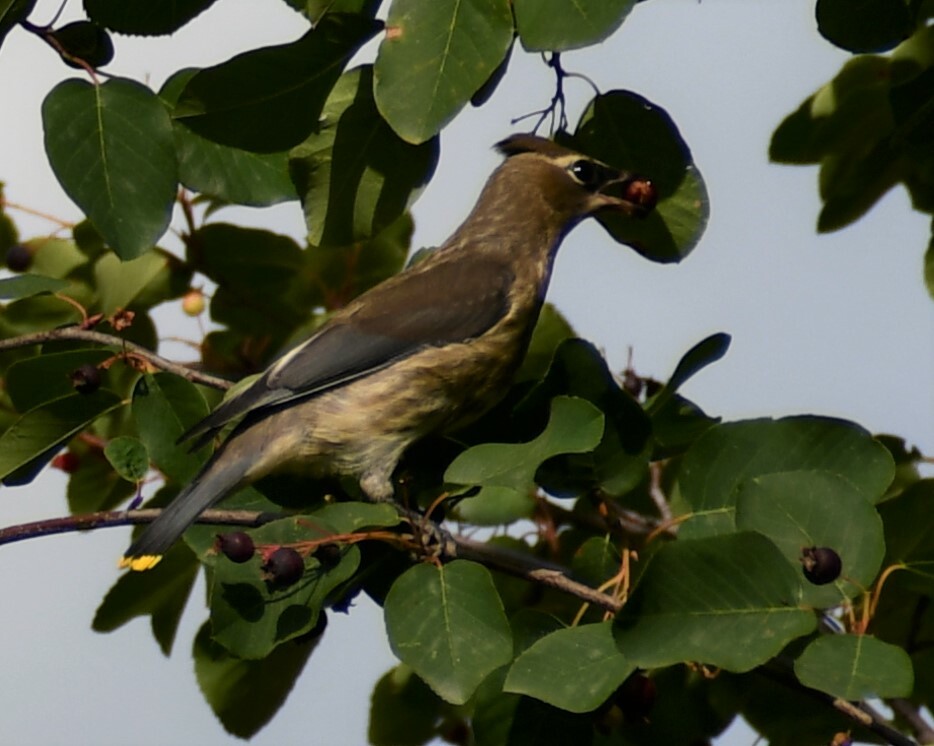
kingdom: Animalia
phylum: Chordata
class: Aves
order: Passeriformes
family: Bombycillidae
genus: Bombycilla
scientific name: Bombycilla cedrorum
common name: Cedar waxwing
